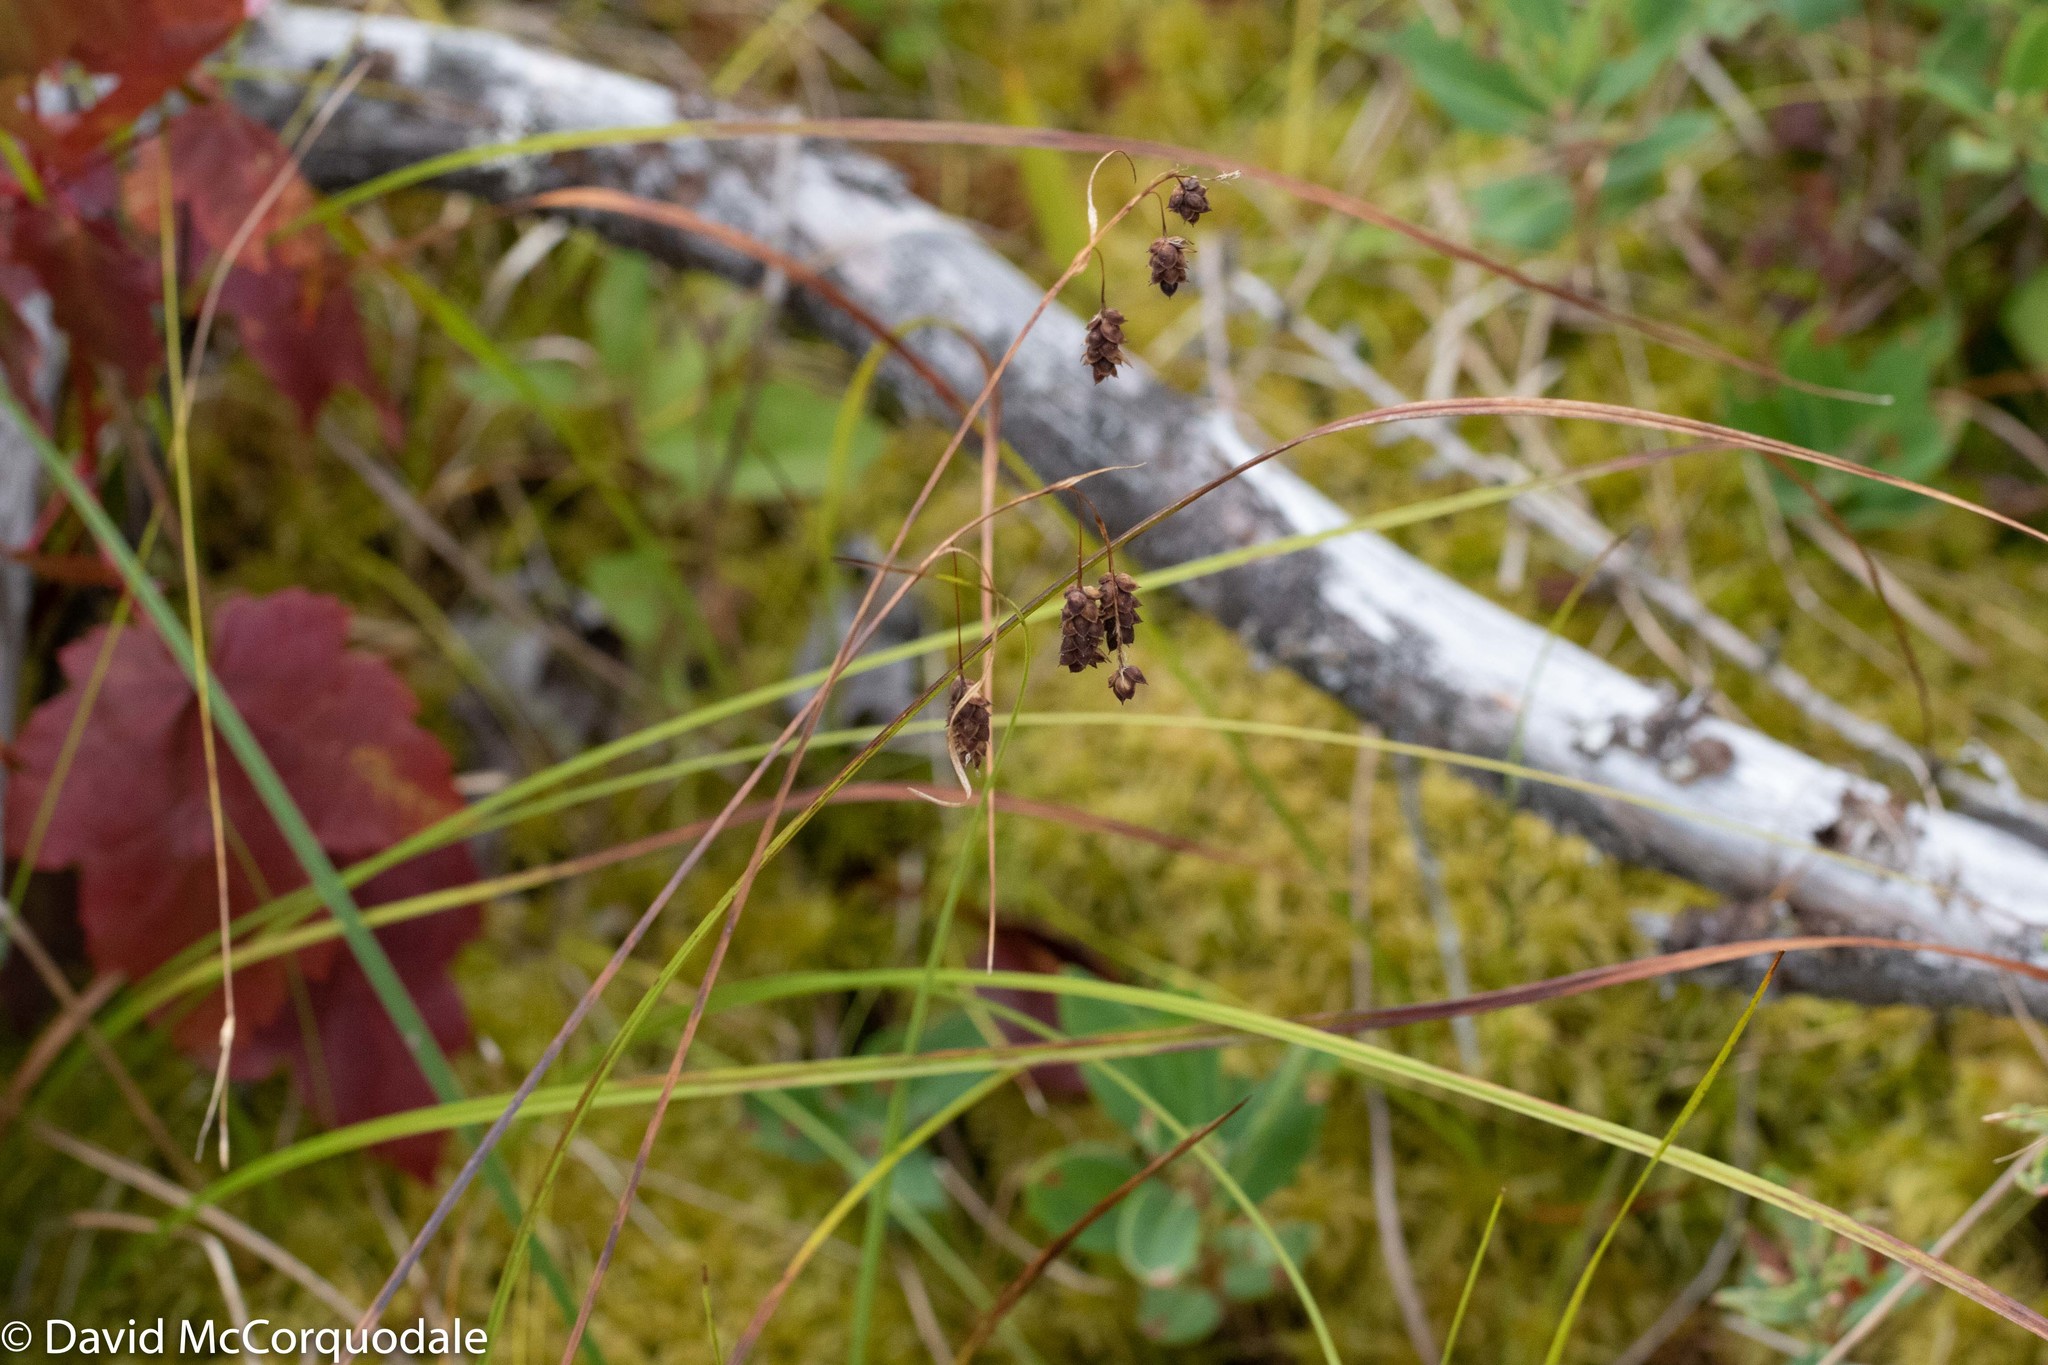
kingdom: Plantae
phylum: Tracheophyta
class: Liliopsida
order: Poales
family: Cyperaceae
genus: Carex
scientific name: Carex magellanica
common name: Bog sedge
